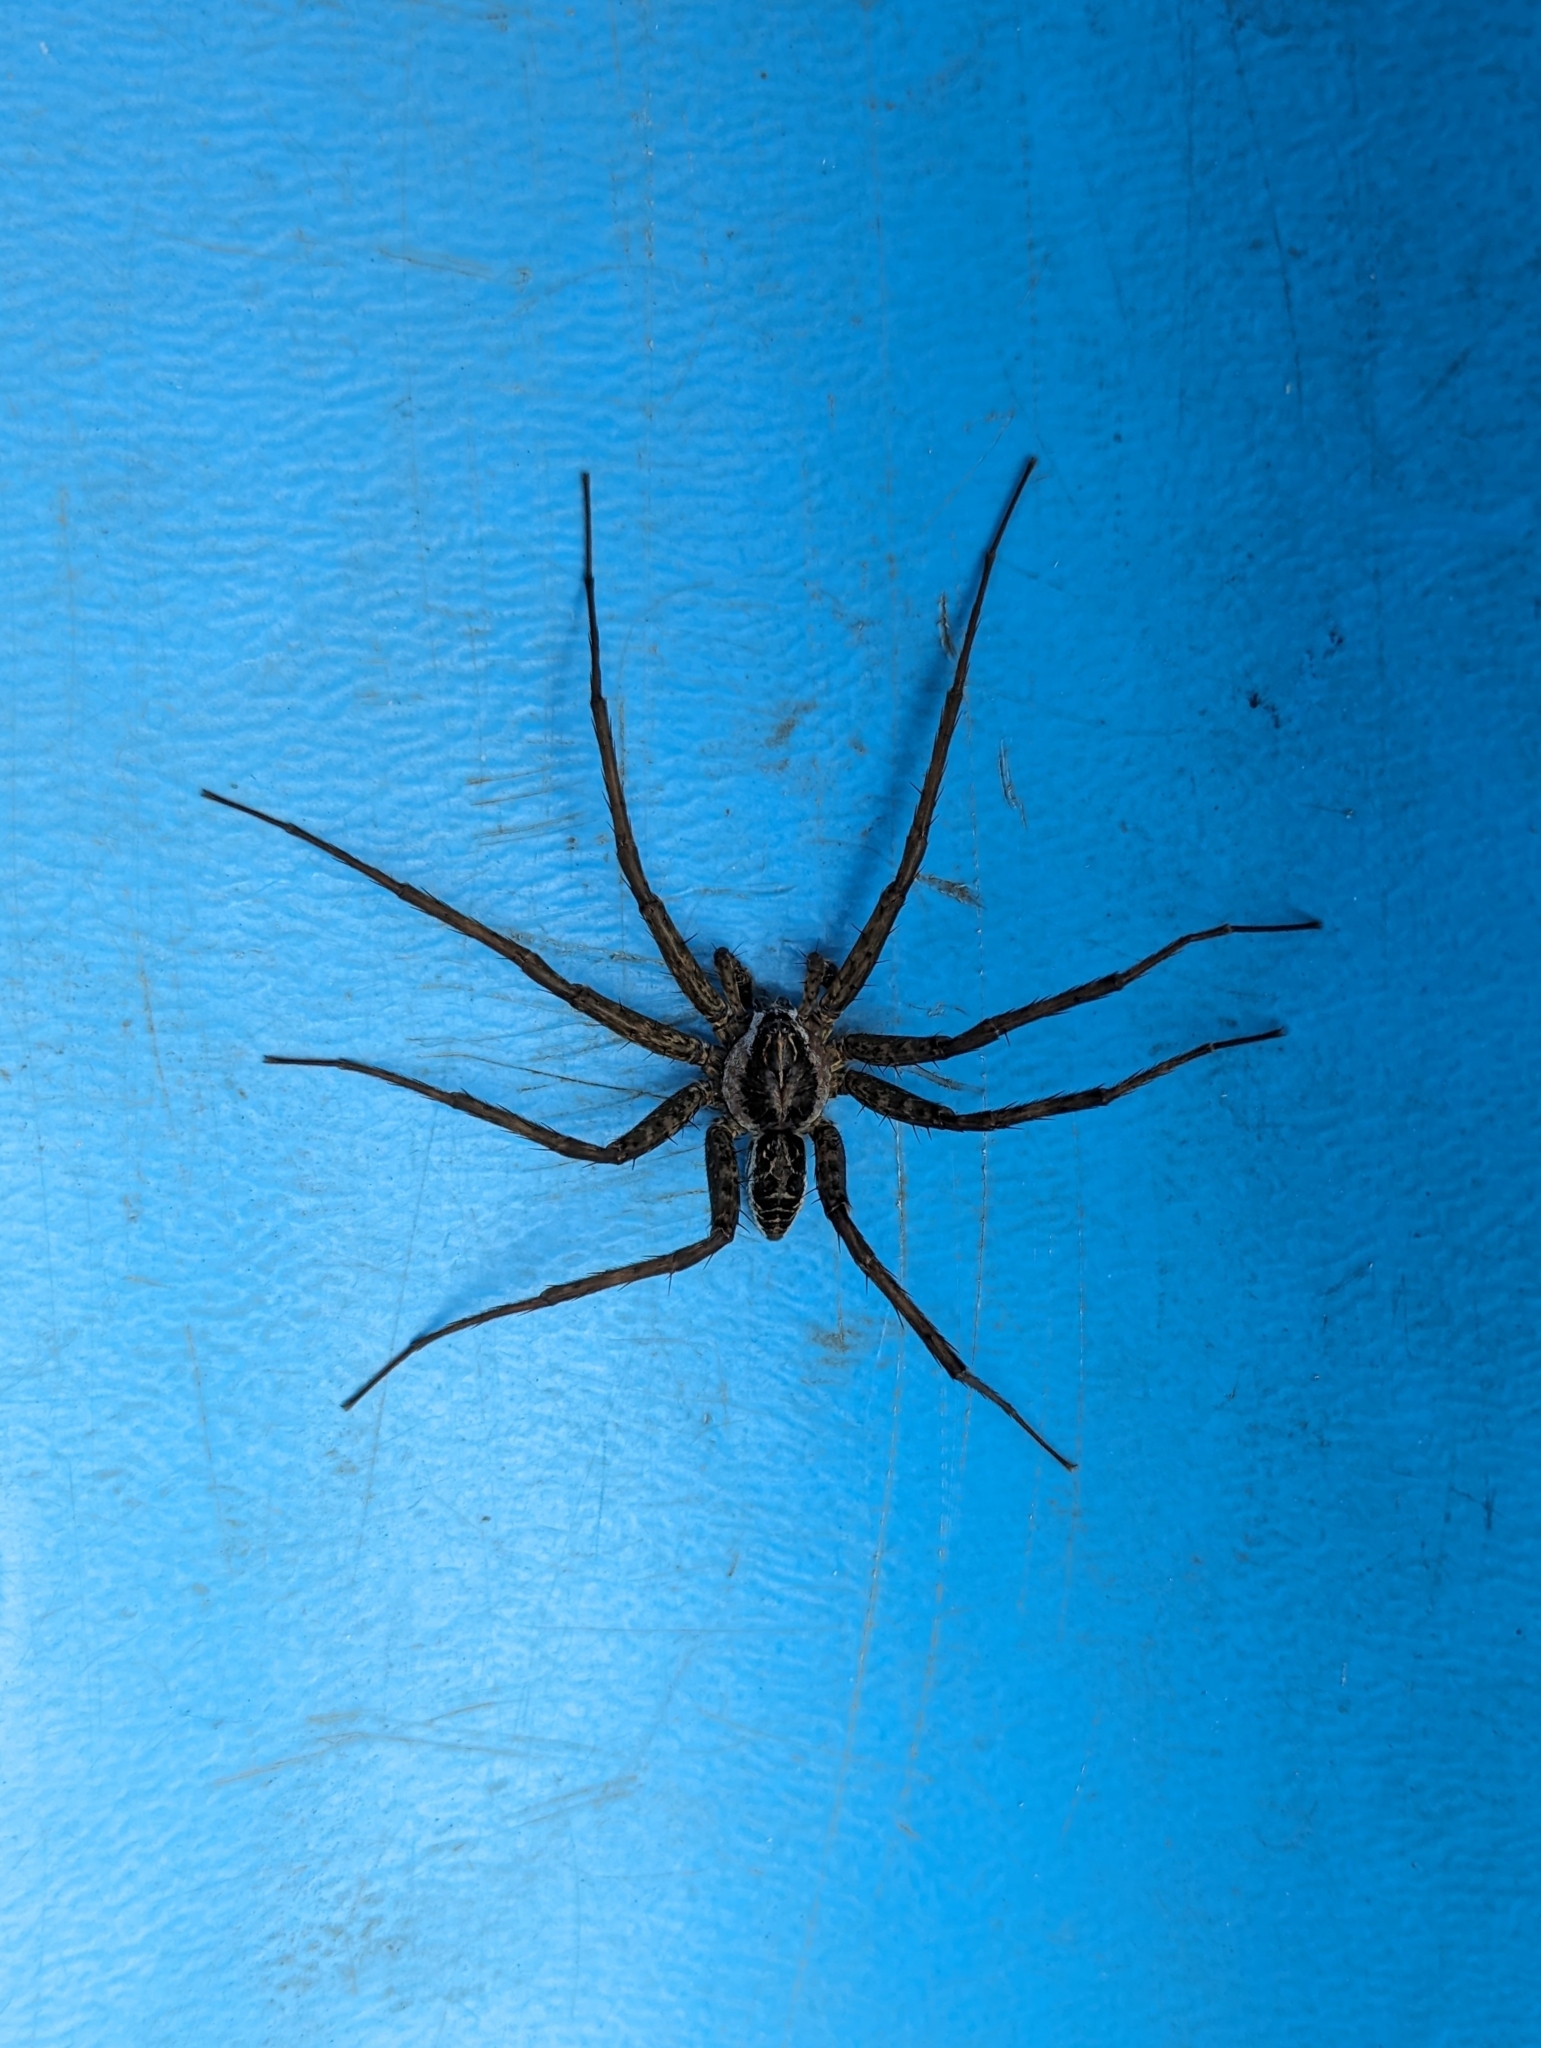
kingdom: Animalia
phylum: Arthropoda
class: Arachnida
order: Araneae
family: Pisauridae
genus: Dolomedes
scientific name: Dolomedes scriptus
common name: Striped fishing spider
